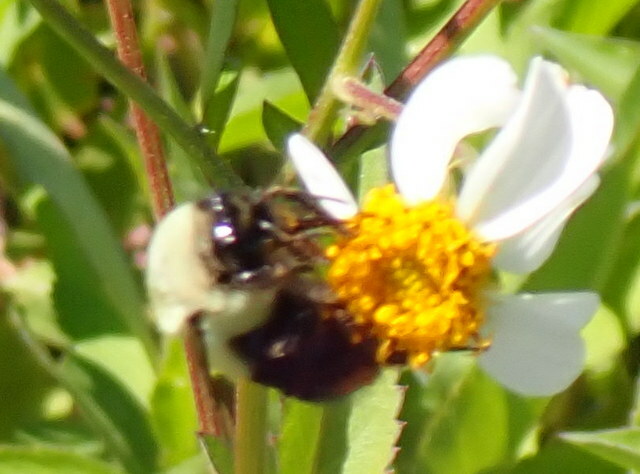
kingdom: Animalia
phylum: Arthropoda
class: Insecta
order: Hymenoptera
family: Apidae
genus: Bombus
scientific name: Bombus impatiens
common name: Common eastern bumble bee
